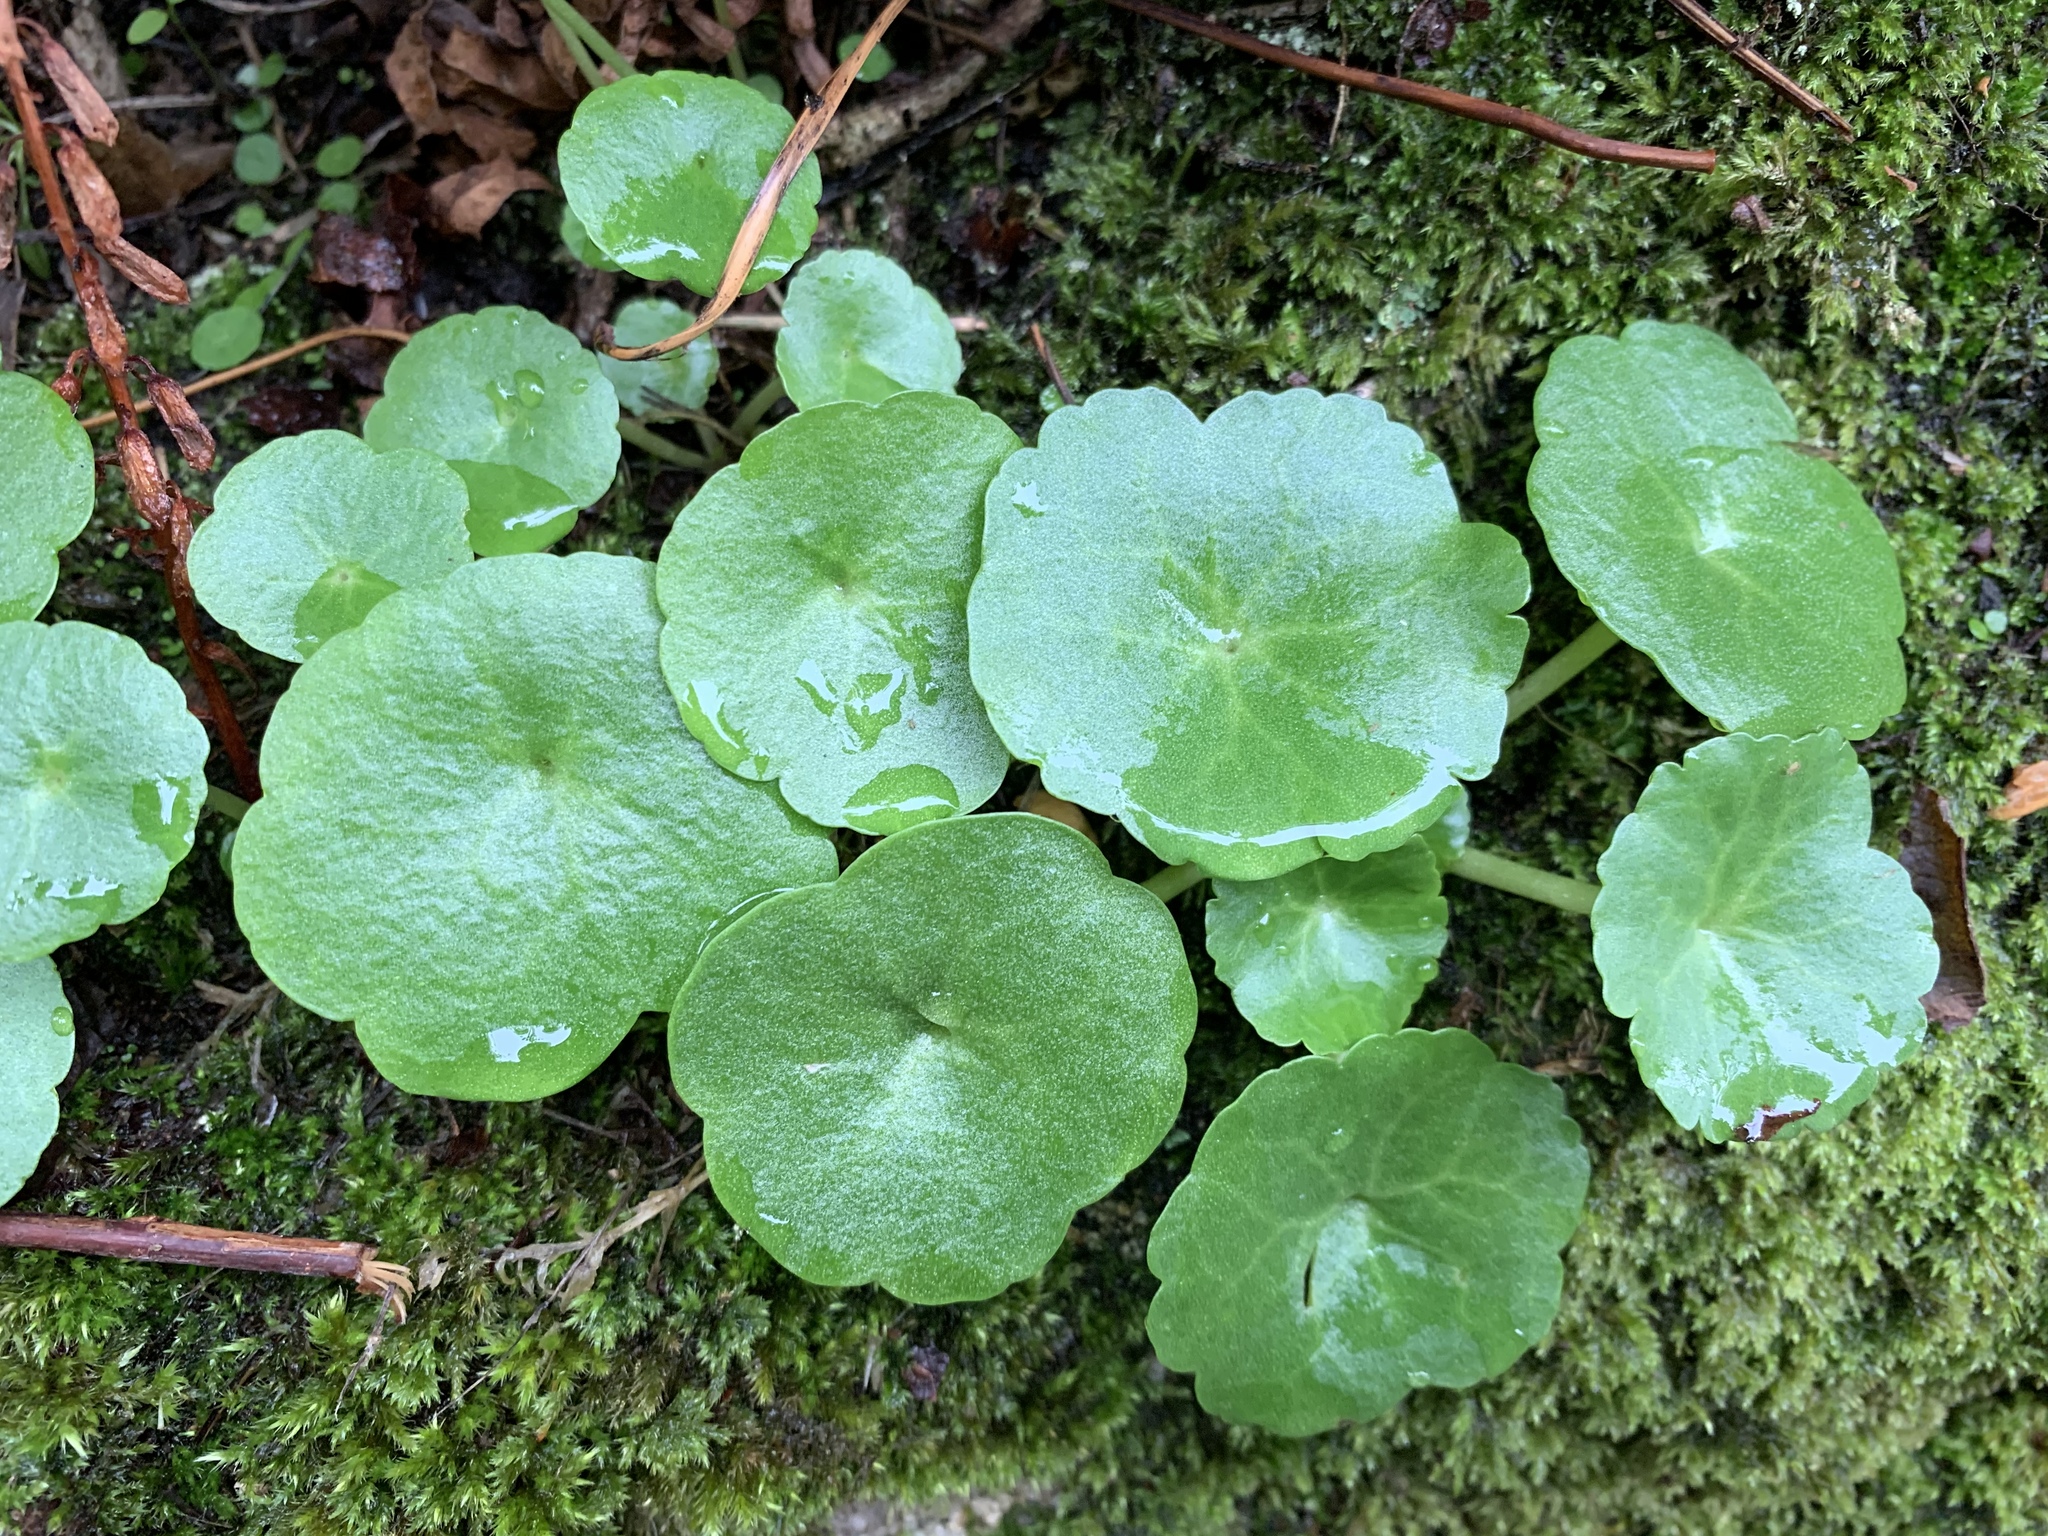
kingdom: Plantae
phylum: Tracheophyta
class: Magnoliopsida
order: Saxifragales
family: Crassulaceae
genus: Umbilicus
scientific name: Umbilicus rupestris
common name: Navelwort
